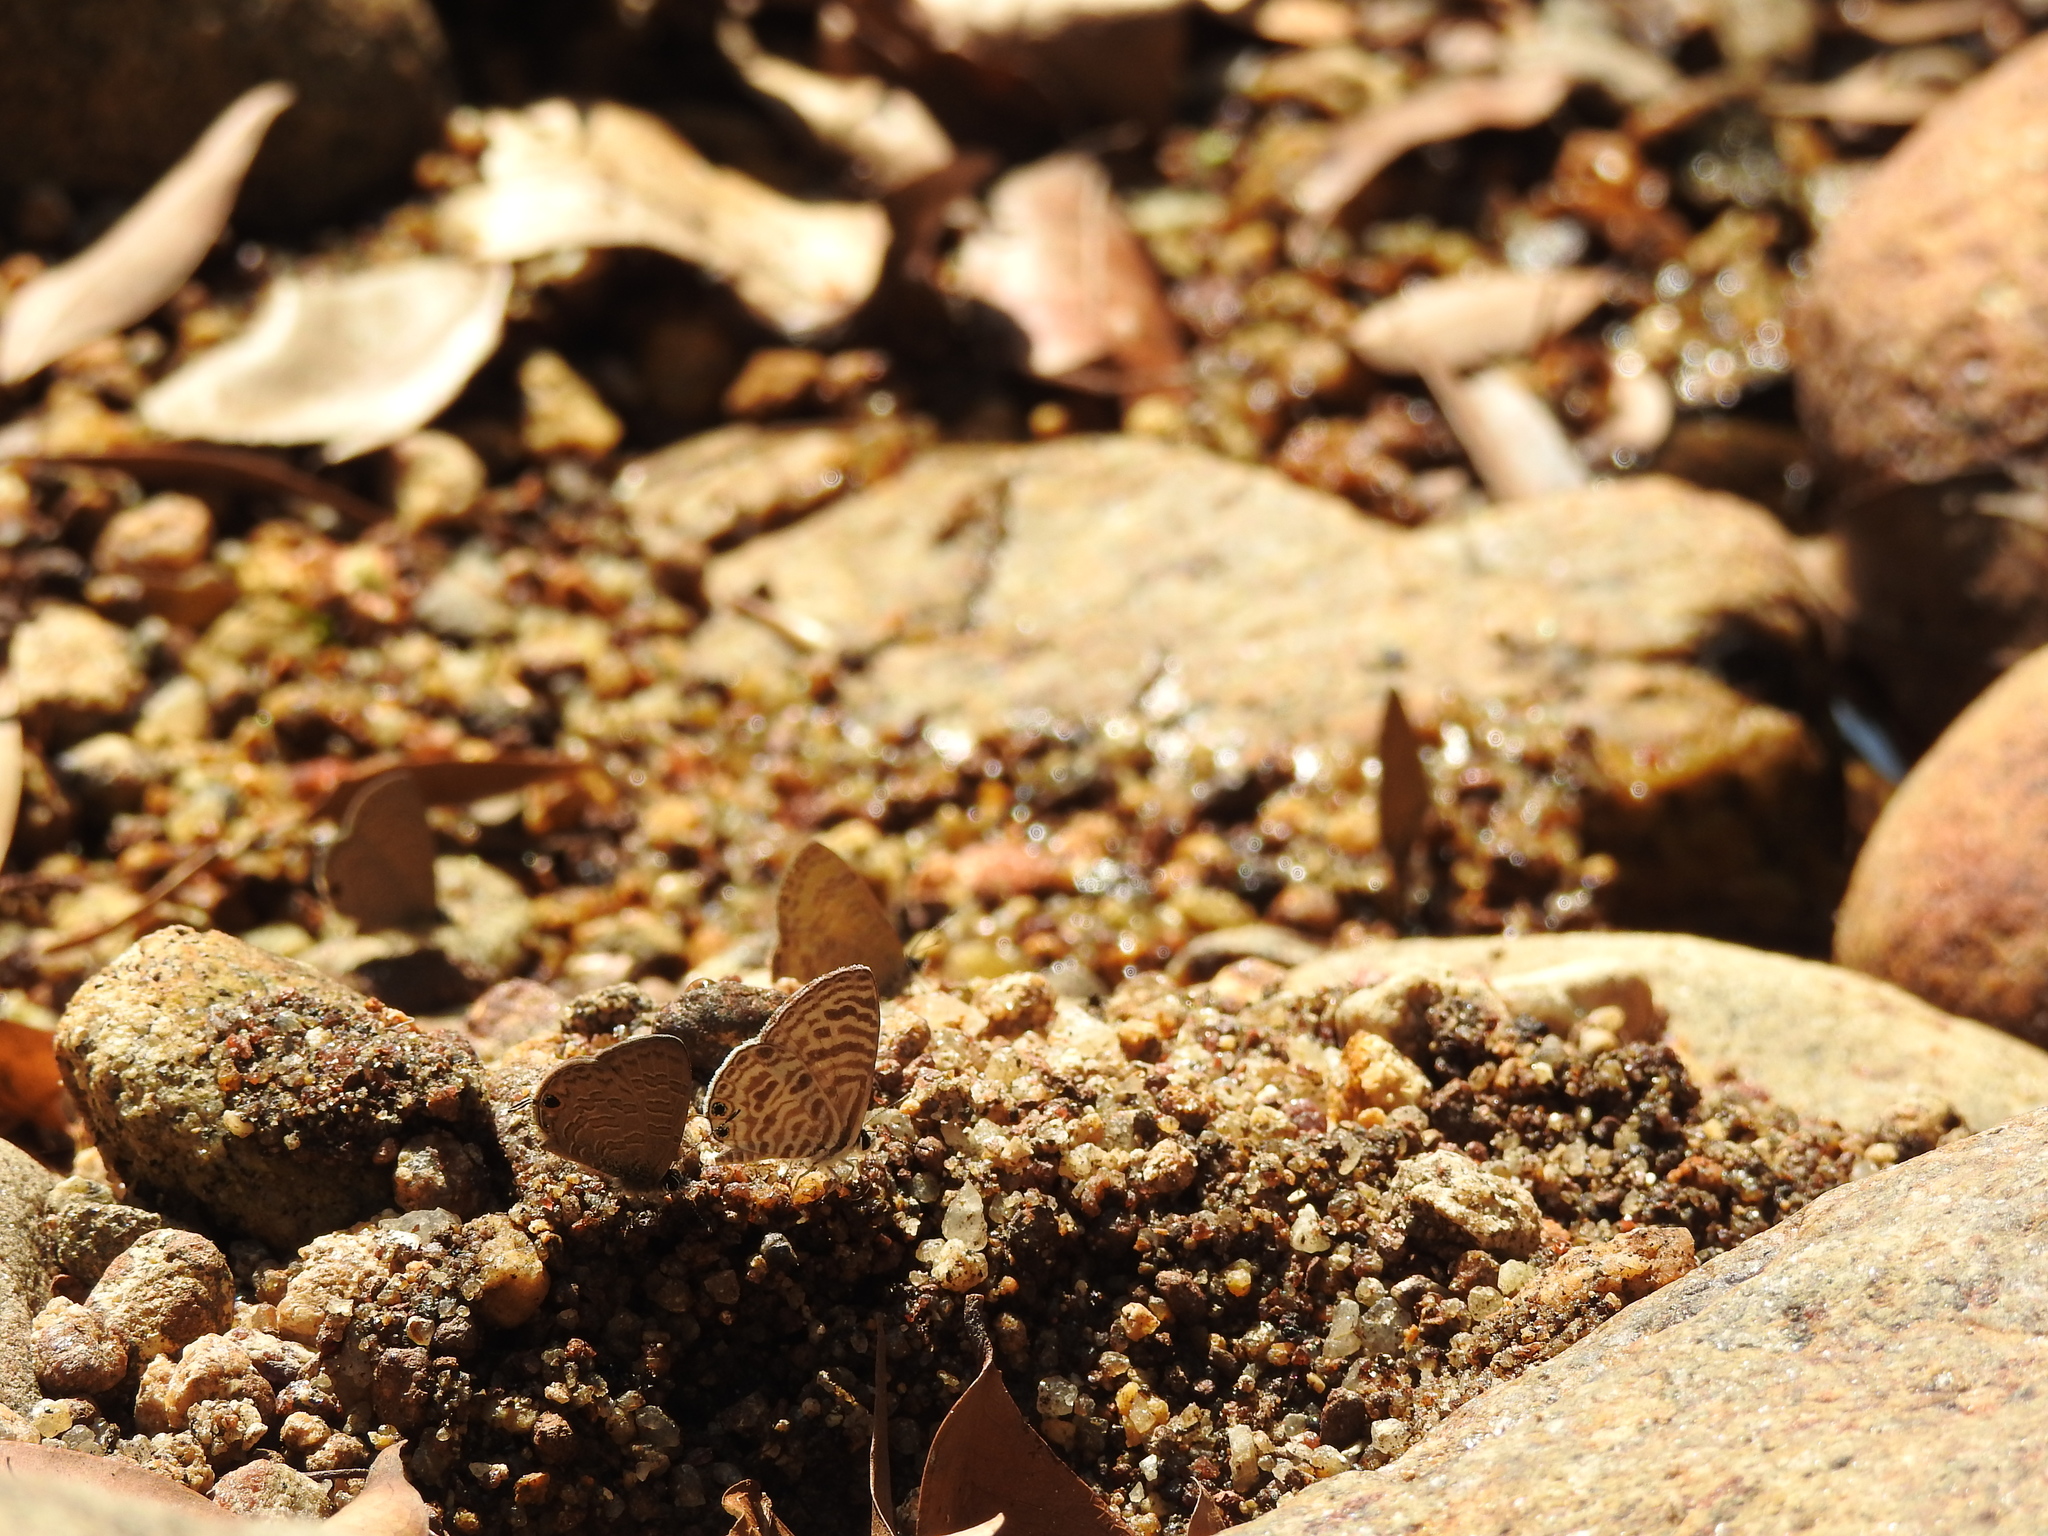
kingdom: Animalia
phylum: Arthropoda
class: Insecta
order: Lepidoptera
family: Lycaenidae
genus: Prosotas
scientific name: Prosotas nora
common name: Common line blue
